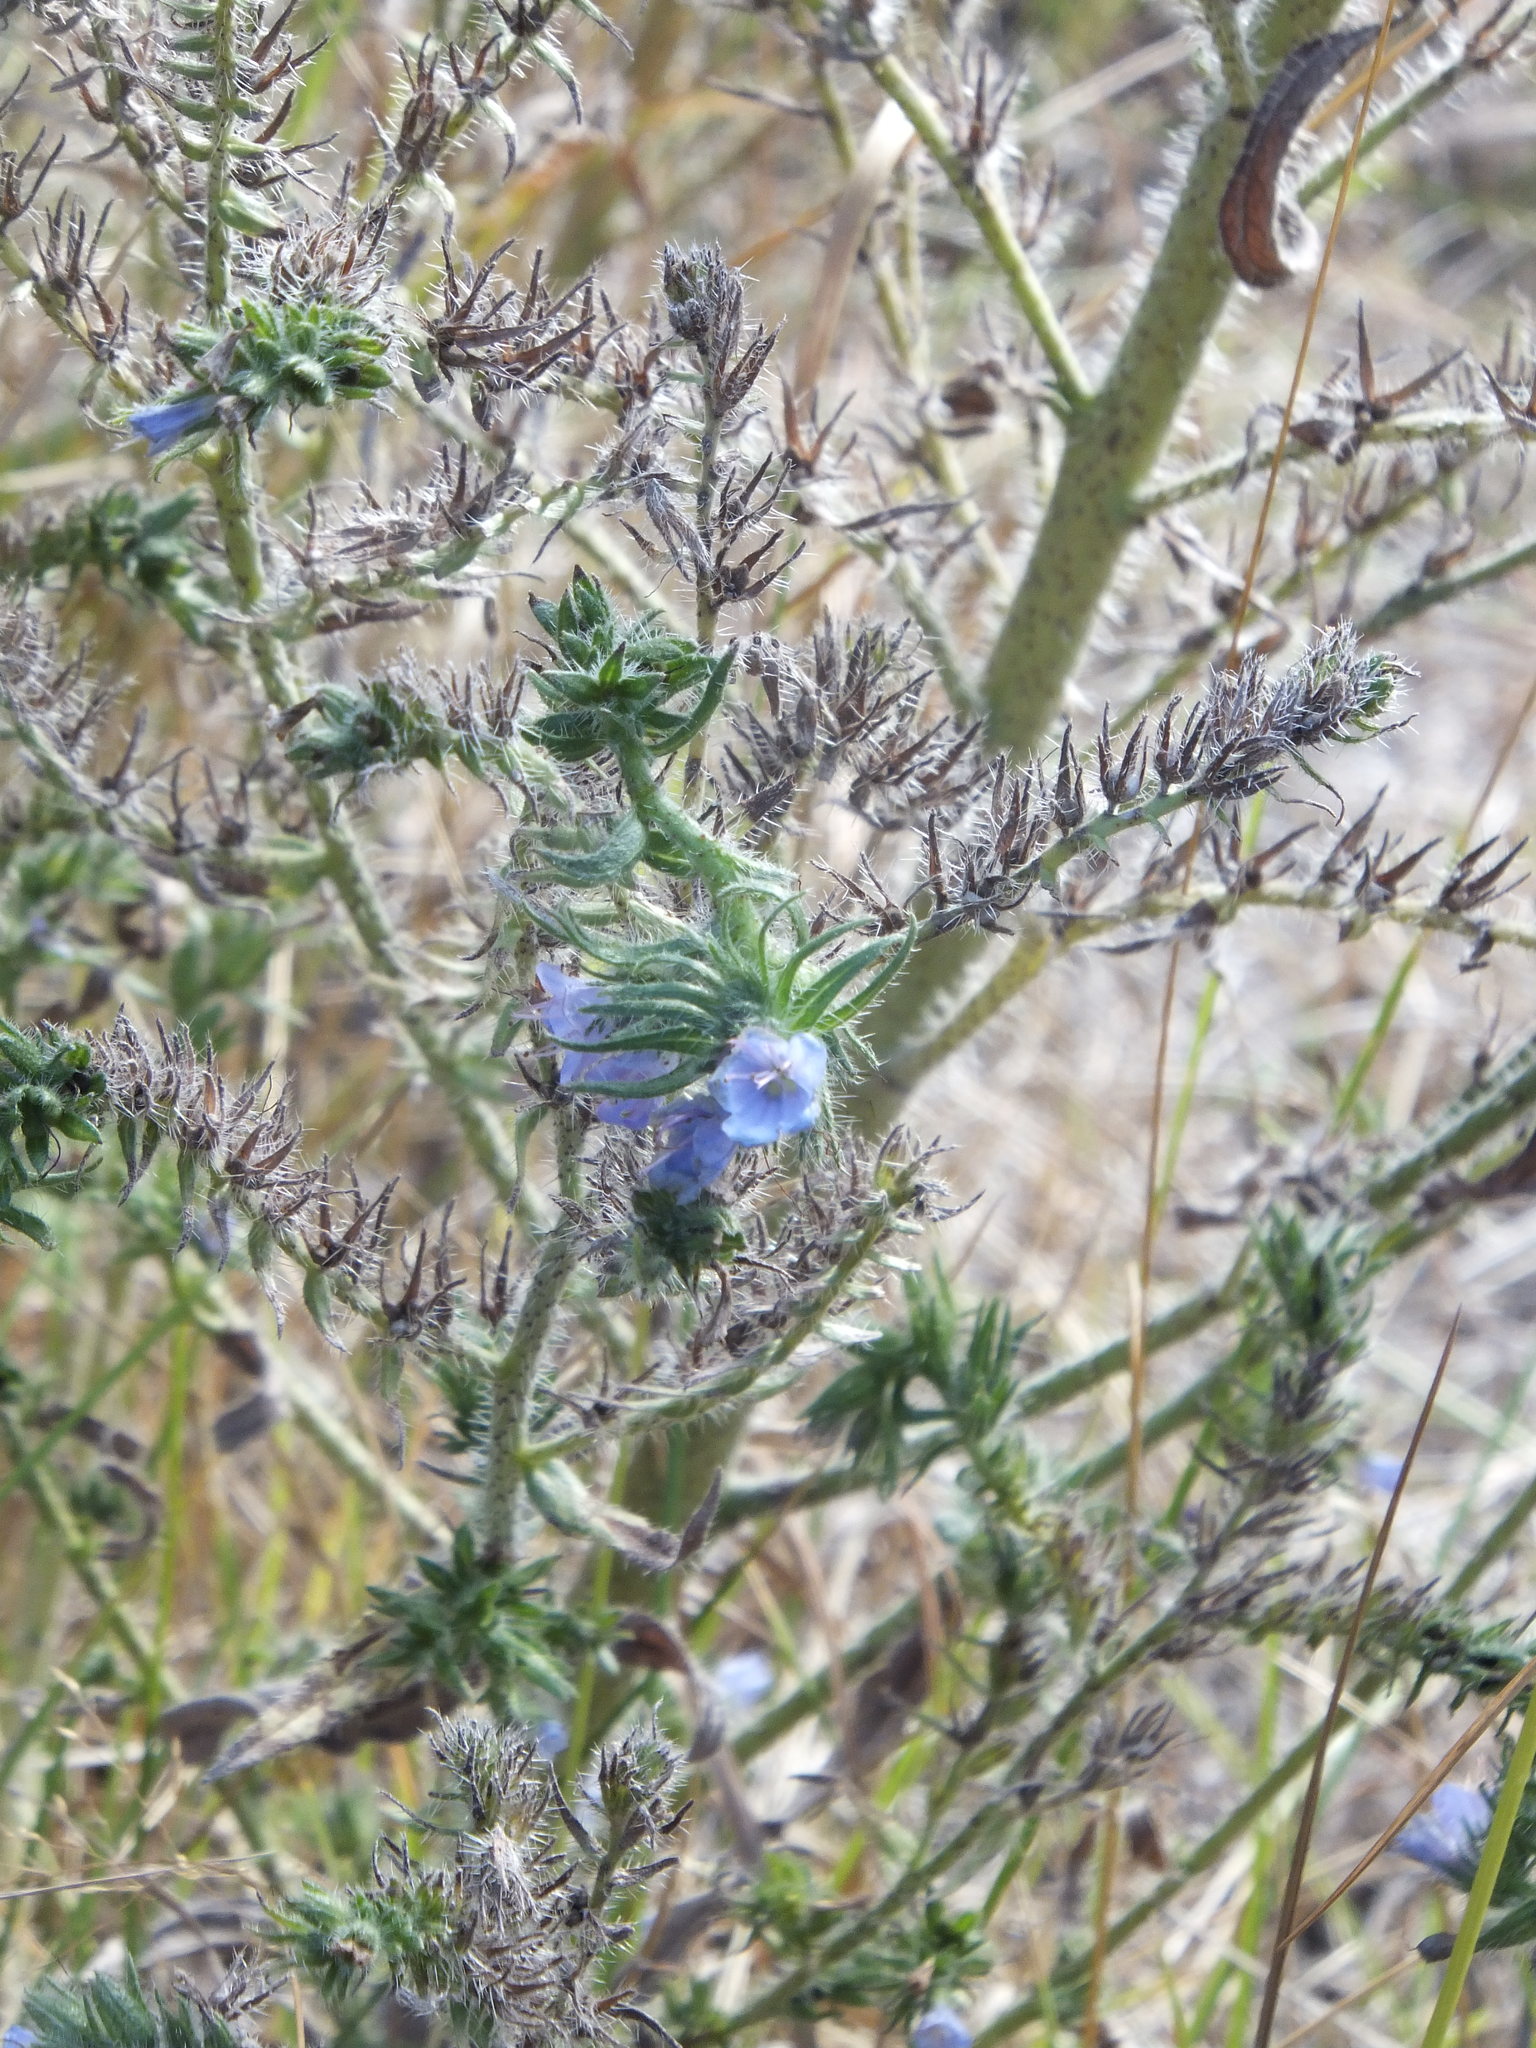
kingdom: Plantae
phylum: Tracheophyta
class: Magnoliopsida
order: Boraginales
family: Boraginaceae
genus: Echium
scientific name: Echium vulgare
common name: Common viper's bugloss
